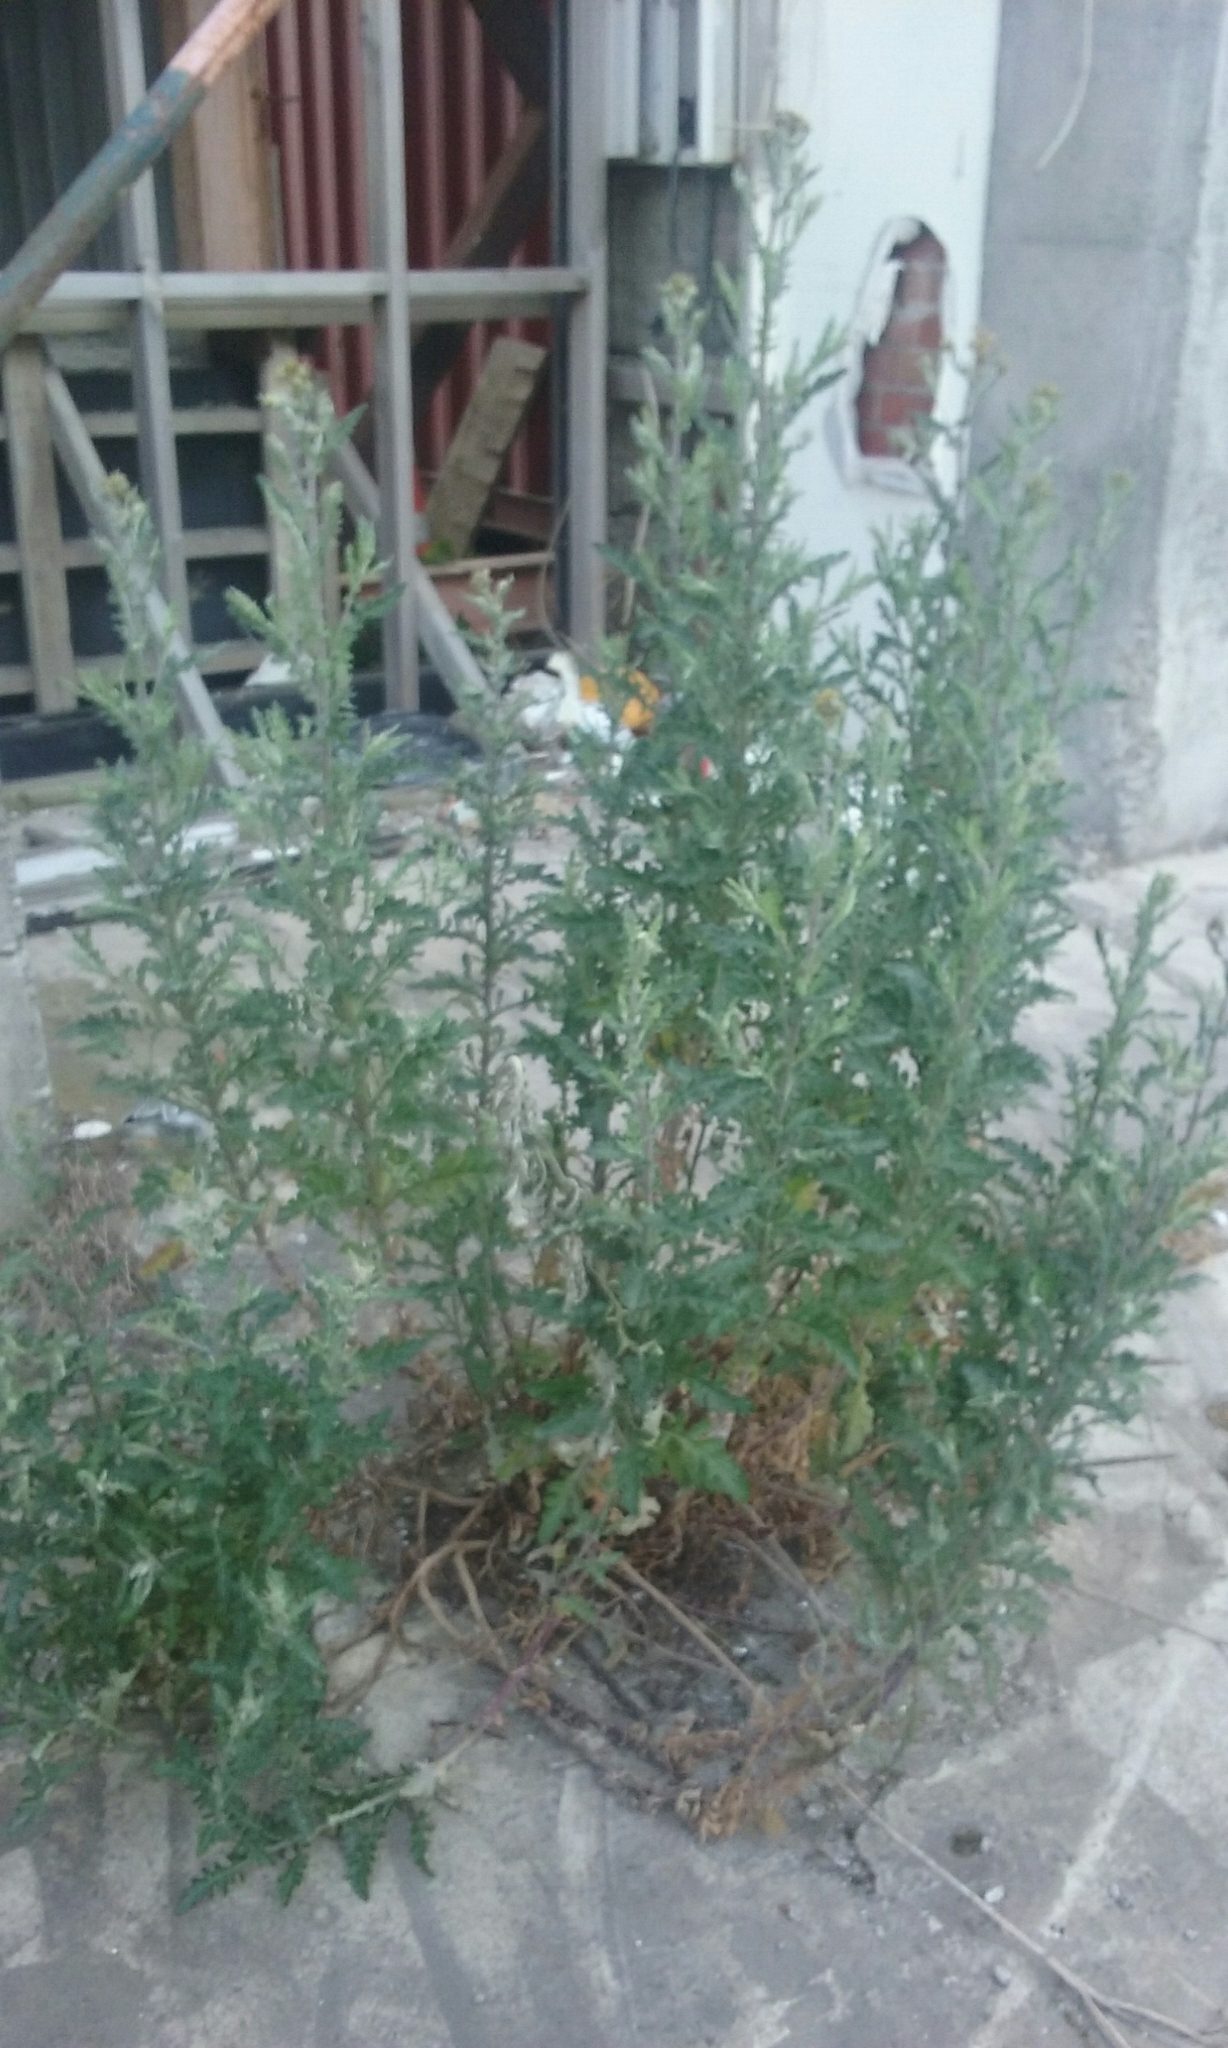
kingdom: Plantae
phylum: Tracheophyta
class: Magnoliopsida
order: Asterales
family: Asteraceae
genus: Senecio
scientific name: Senecio glomeratus
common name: Cutleaf burnweed
